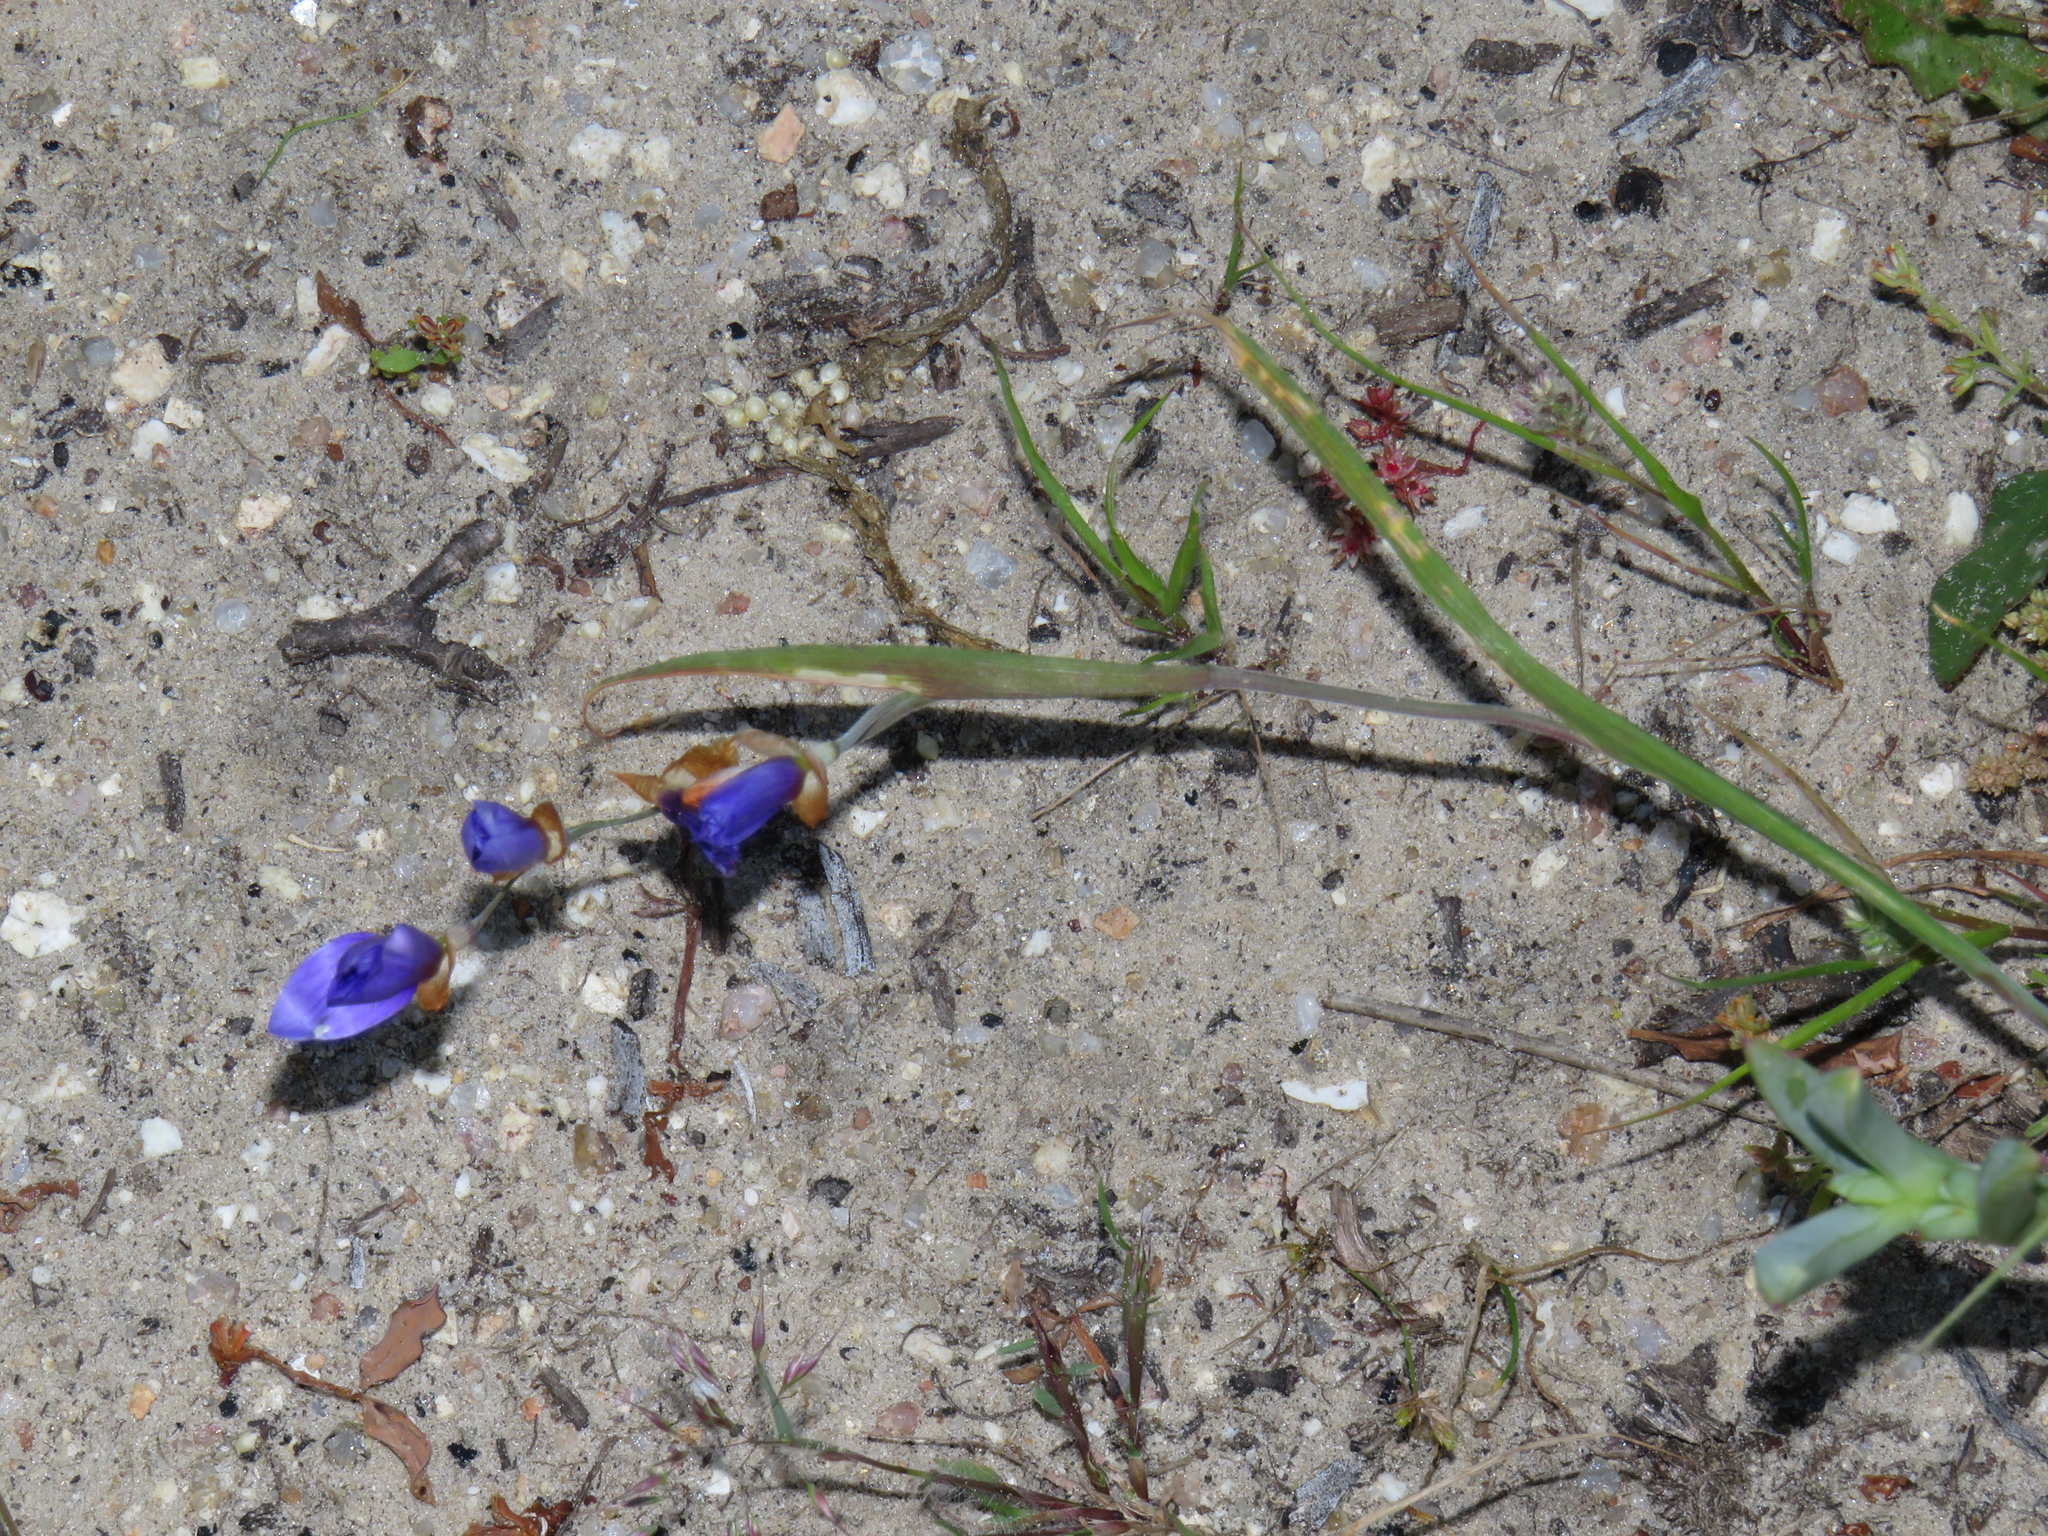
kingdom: Plantae
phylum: Tracheophyta
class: Liliopsida
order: Asparagales
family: Iridaceae
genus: Geissorhiza
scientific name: Geissorhiza lewisiae
